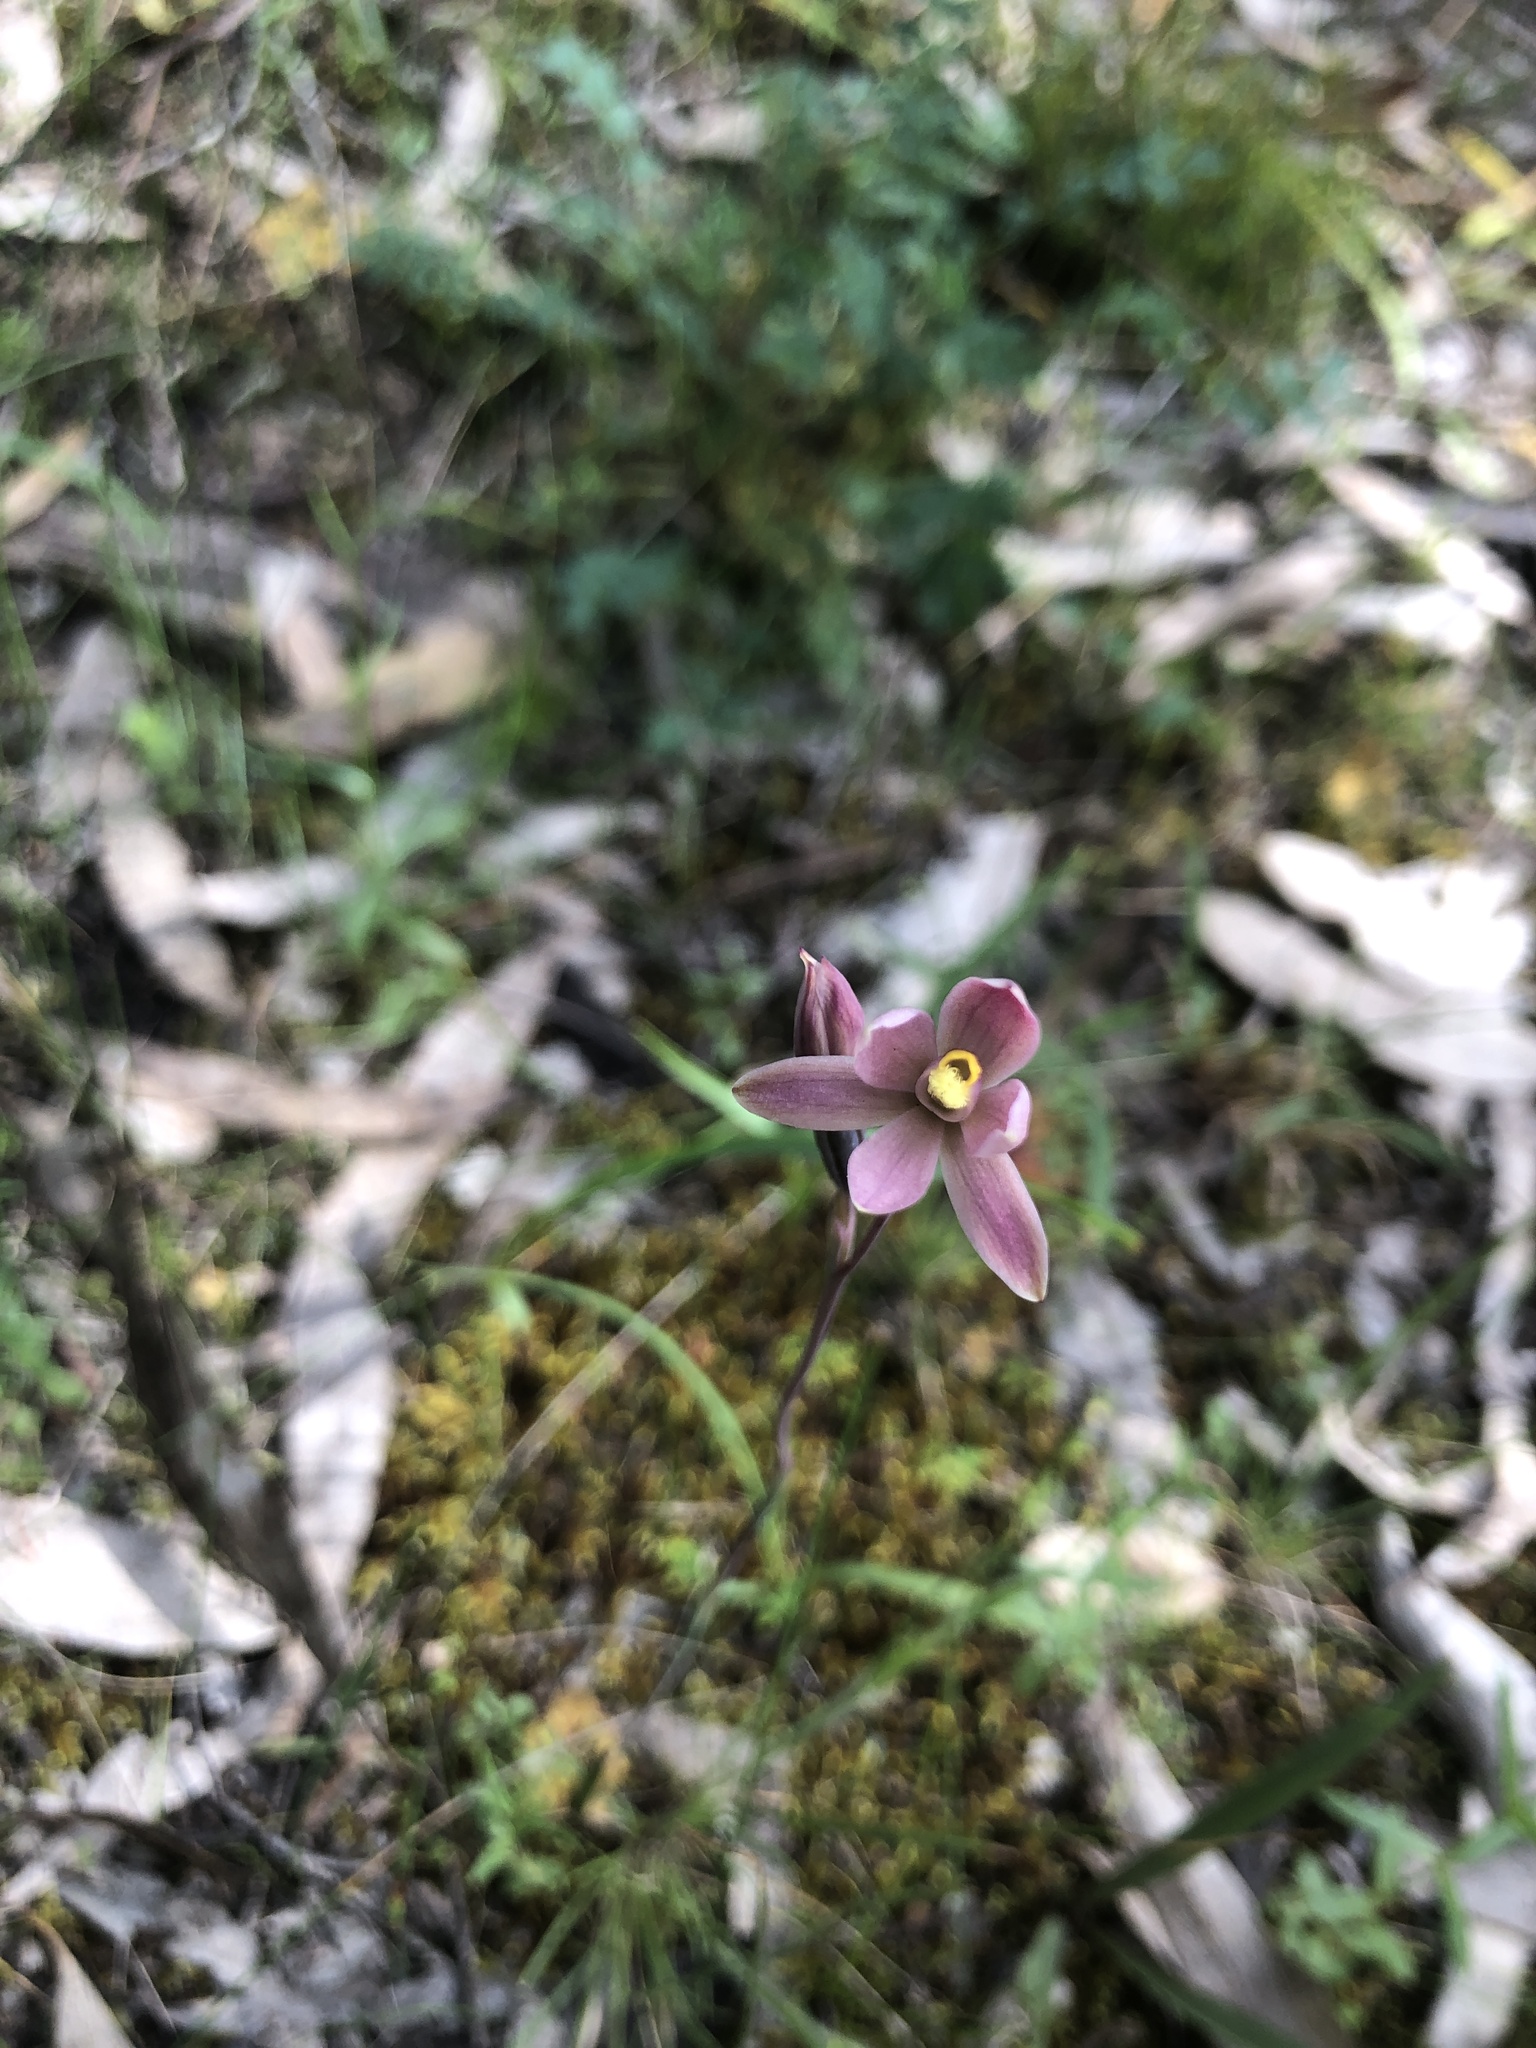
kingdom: Plantae
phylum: Tracheophyta
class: Liliopsida
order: Asparagales
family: Orchidaceae
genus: Thelymitra
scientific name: Thelymitra luteocilium
